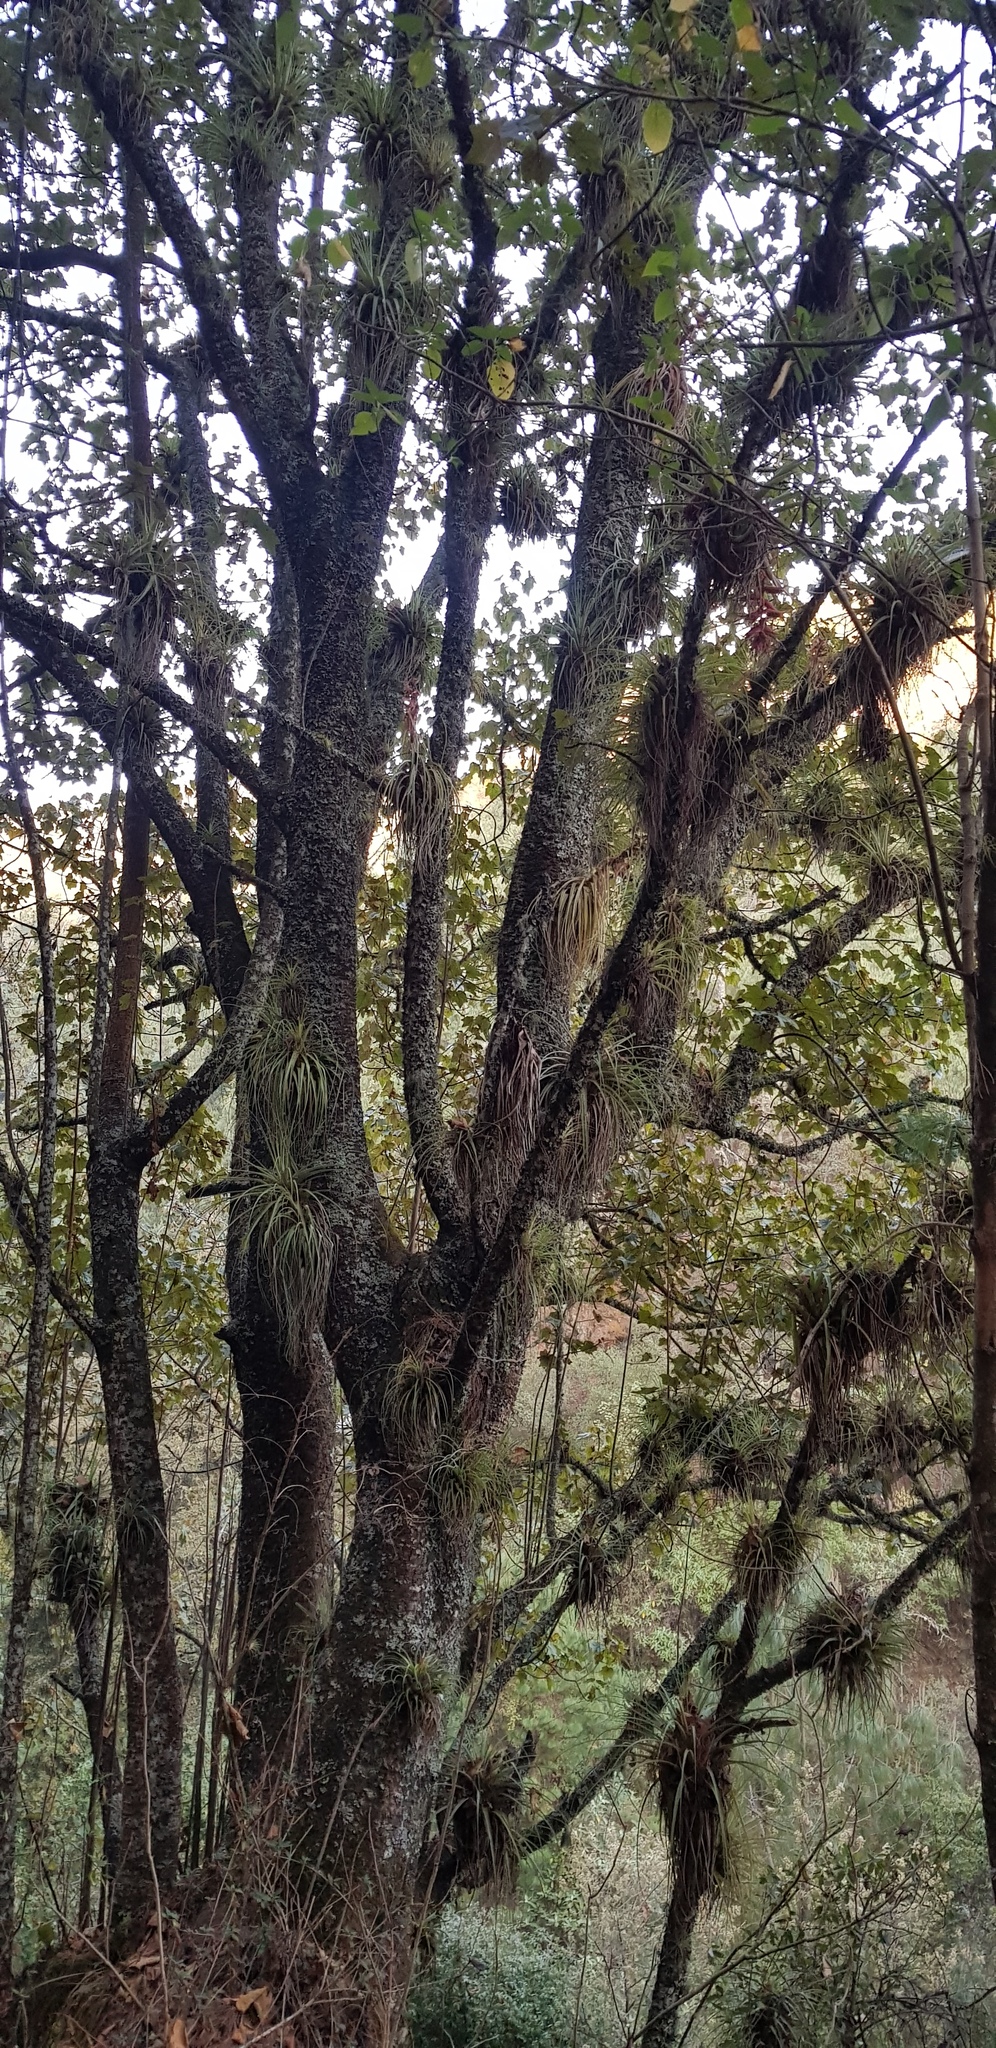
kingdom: Plantae
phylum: Tracheophyta
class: Magnoliopsida
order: Malvales
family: Malvaceae
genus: Chiranthodendron
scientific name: Chiranthodendron pentadactylon
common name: Mexican-hat-plant
